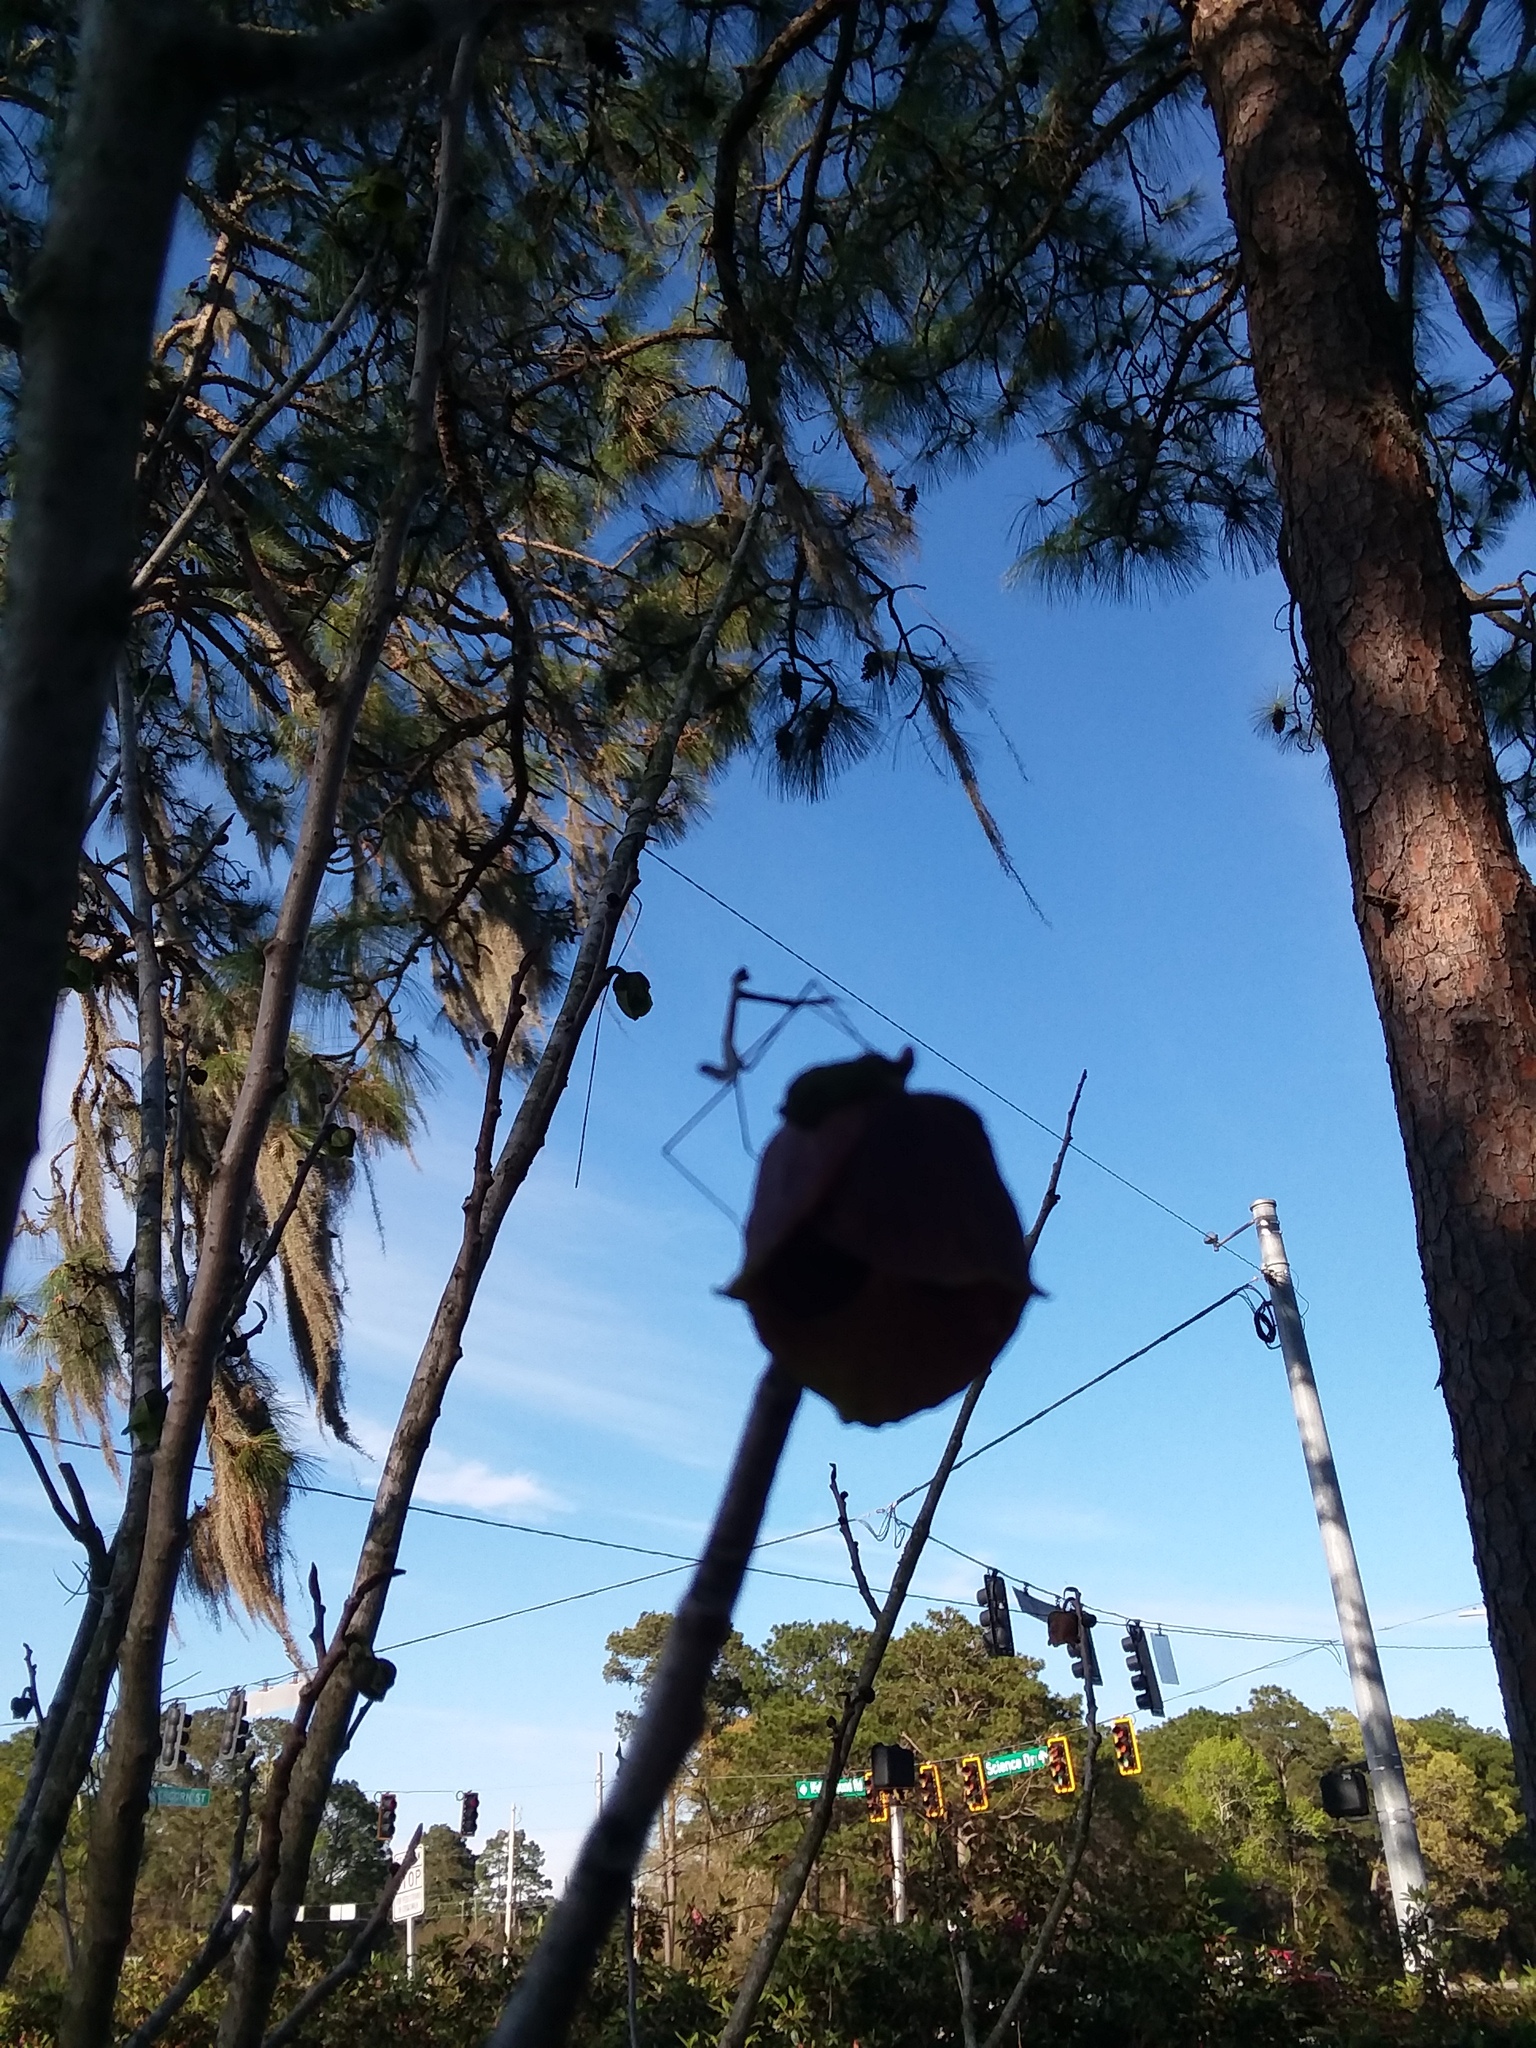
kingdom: Animalia
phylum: Arthropoda
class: Insecta
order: Mantodea
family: Thespidae
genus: Thesprotia
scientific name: Thesprotia graminis
